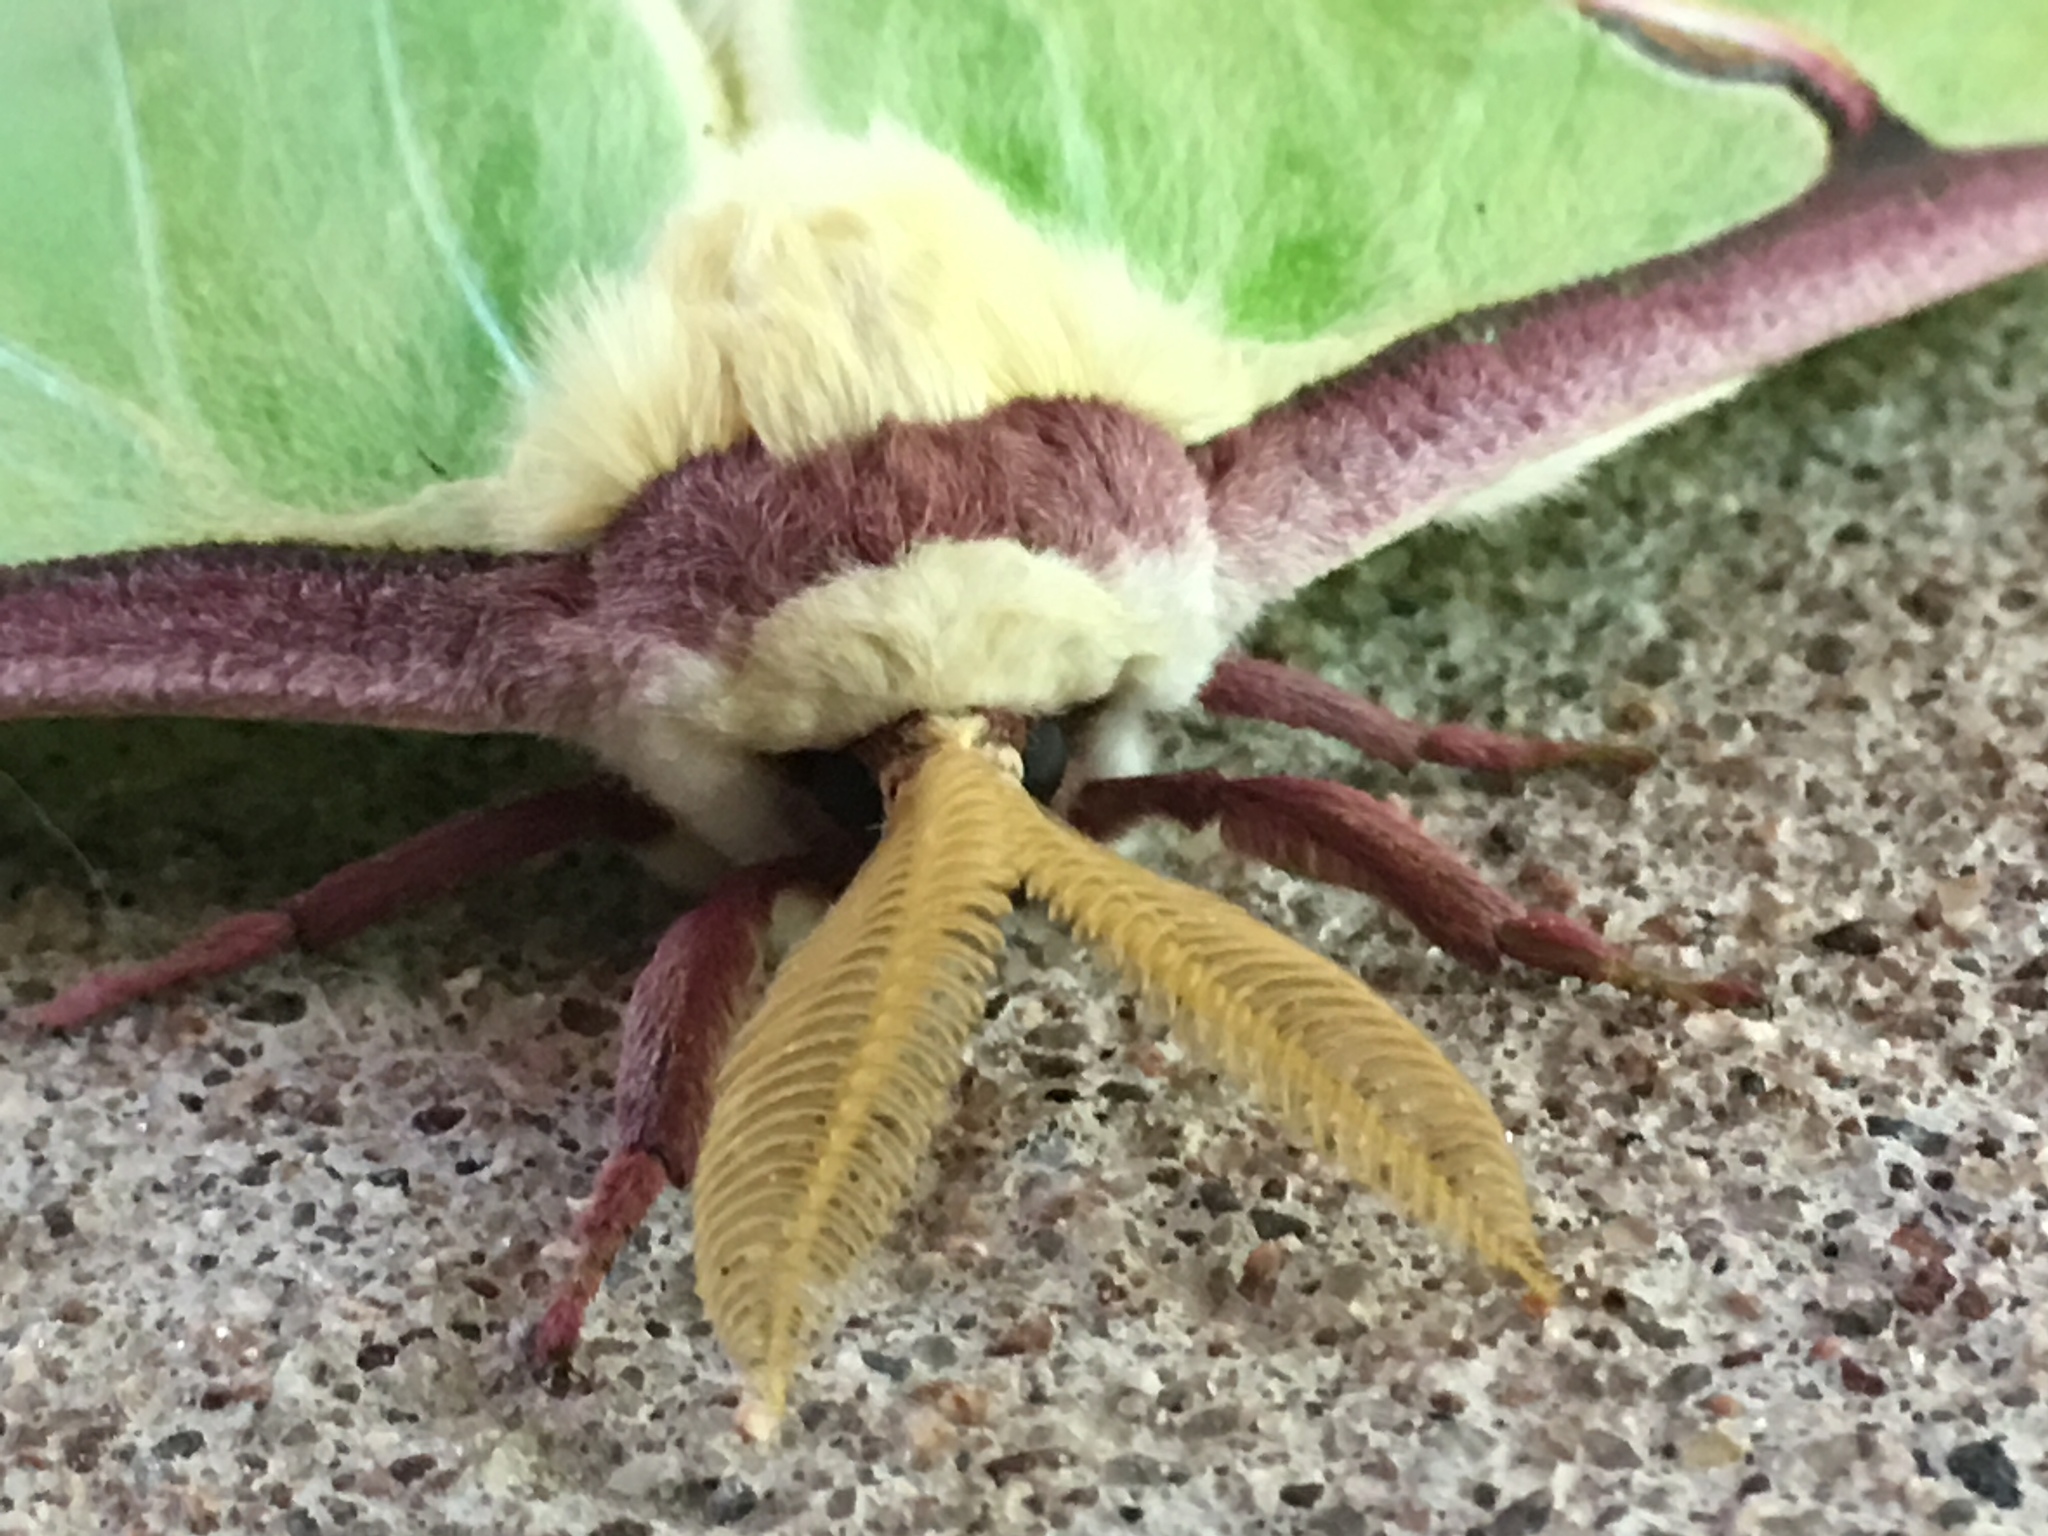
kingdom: Animalia
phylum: Arthropoda
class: Insecta
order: Lepidoptera
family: Saturniidae
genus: Actias
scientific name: Actias luna
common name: Luna moth
